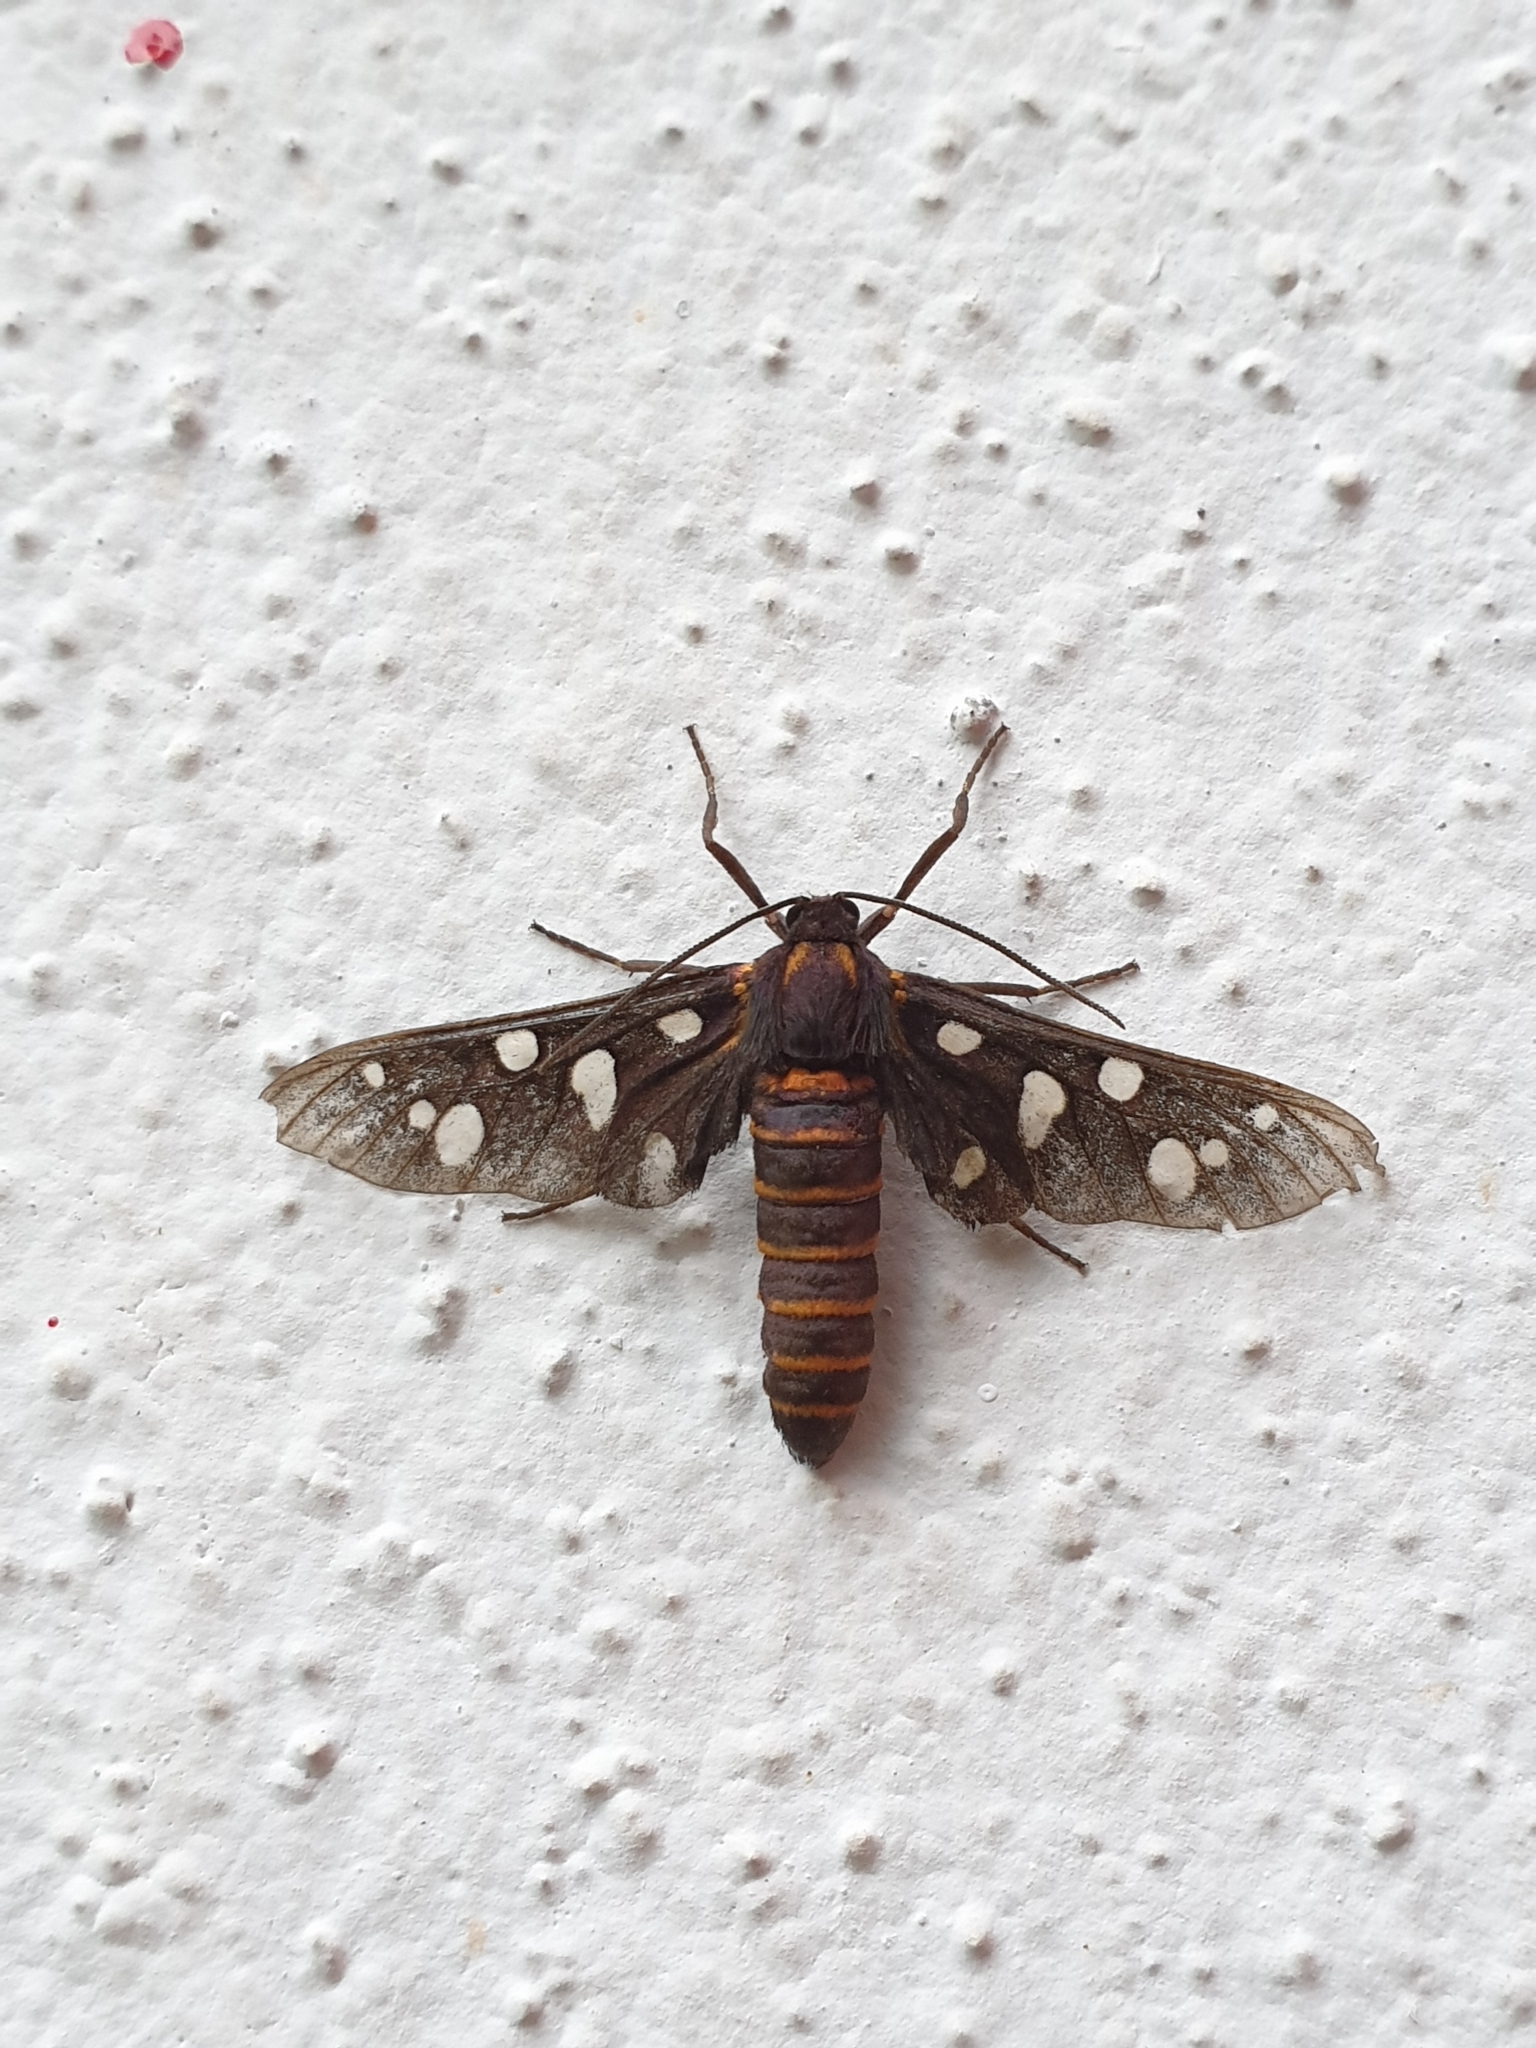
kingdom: Animalia
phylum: Arthropoda
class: Insecta
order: Lepidoptera
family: Erebidae
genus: Amata
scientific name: Amata passalis
